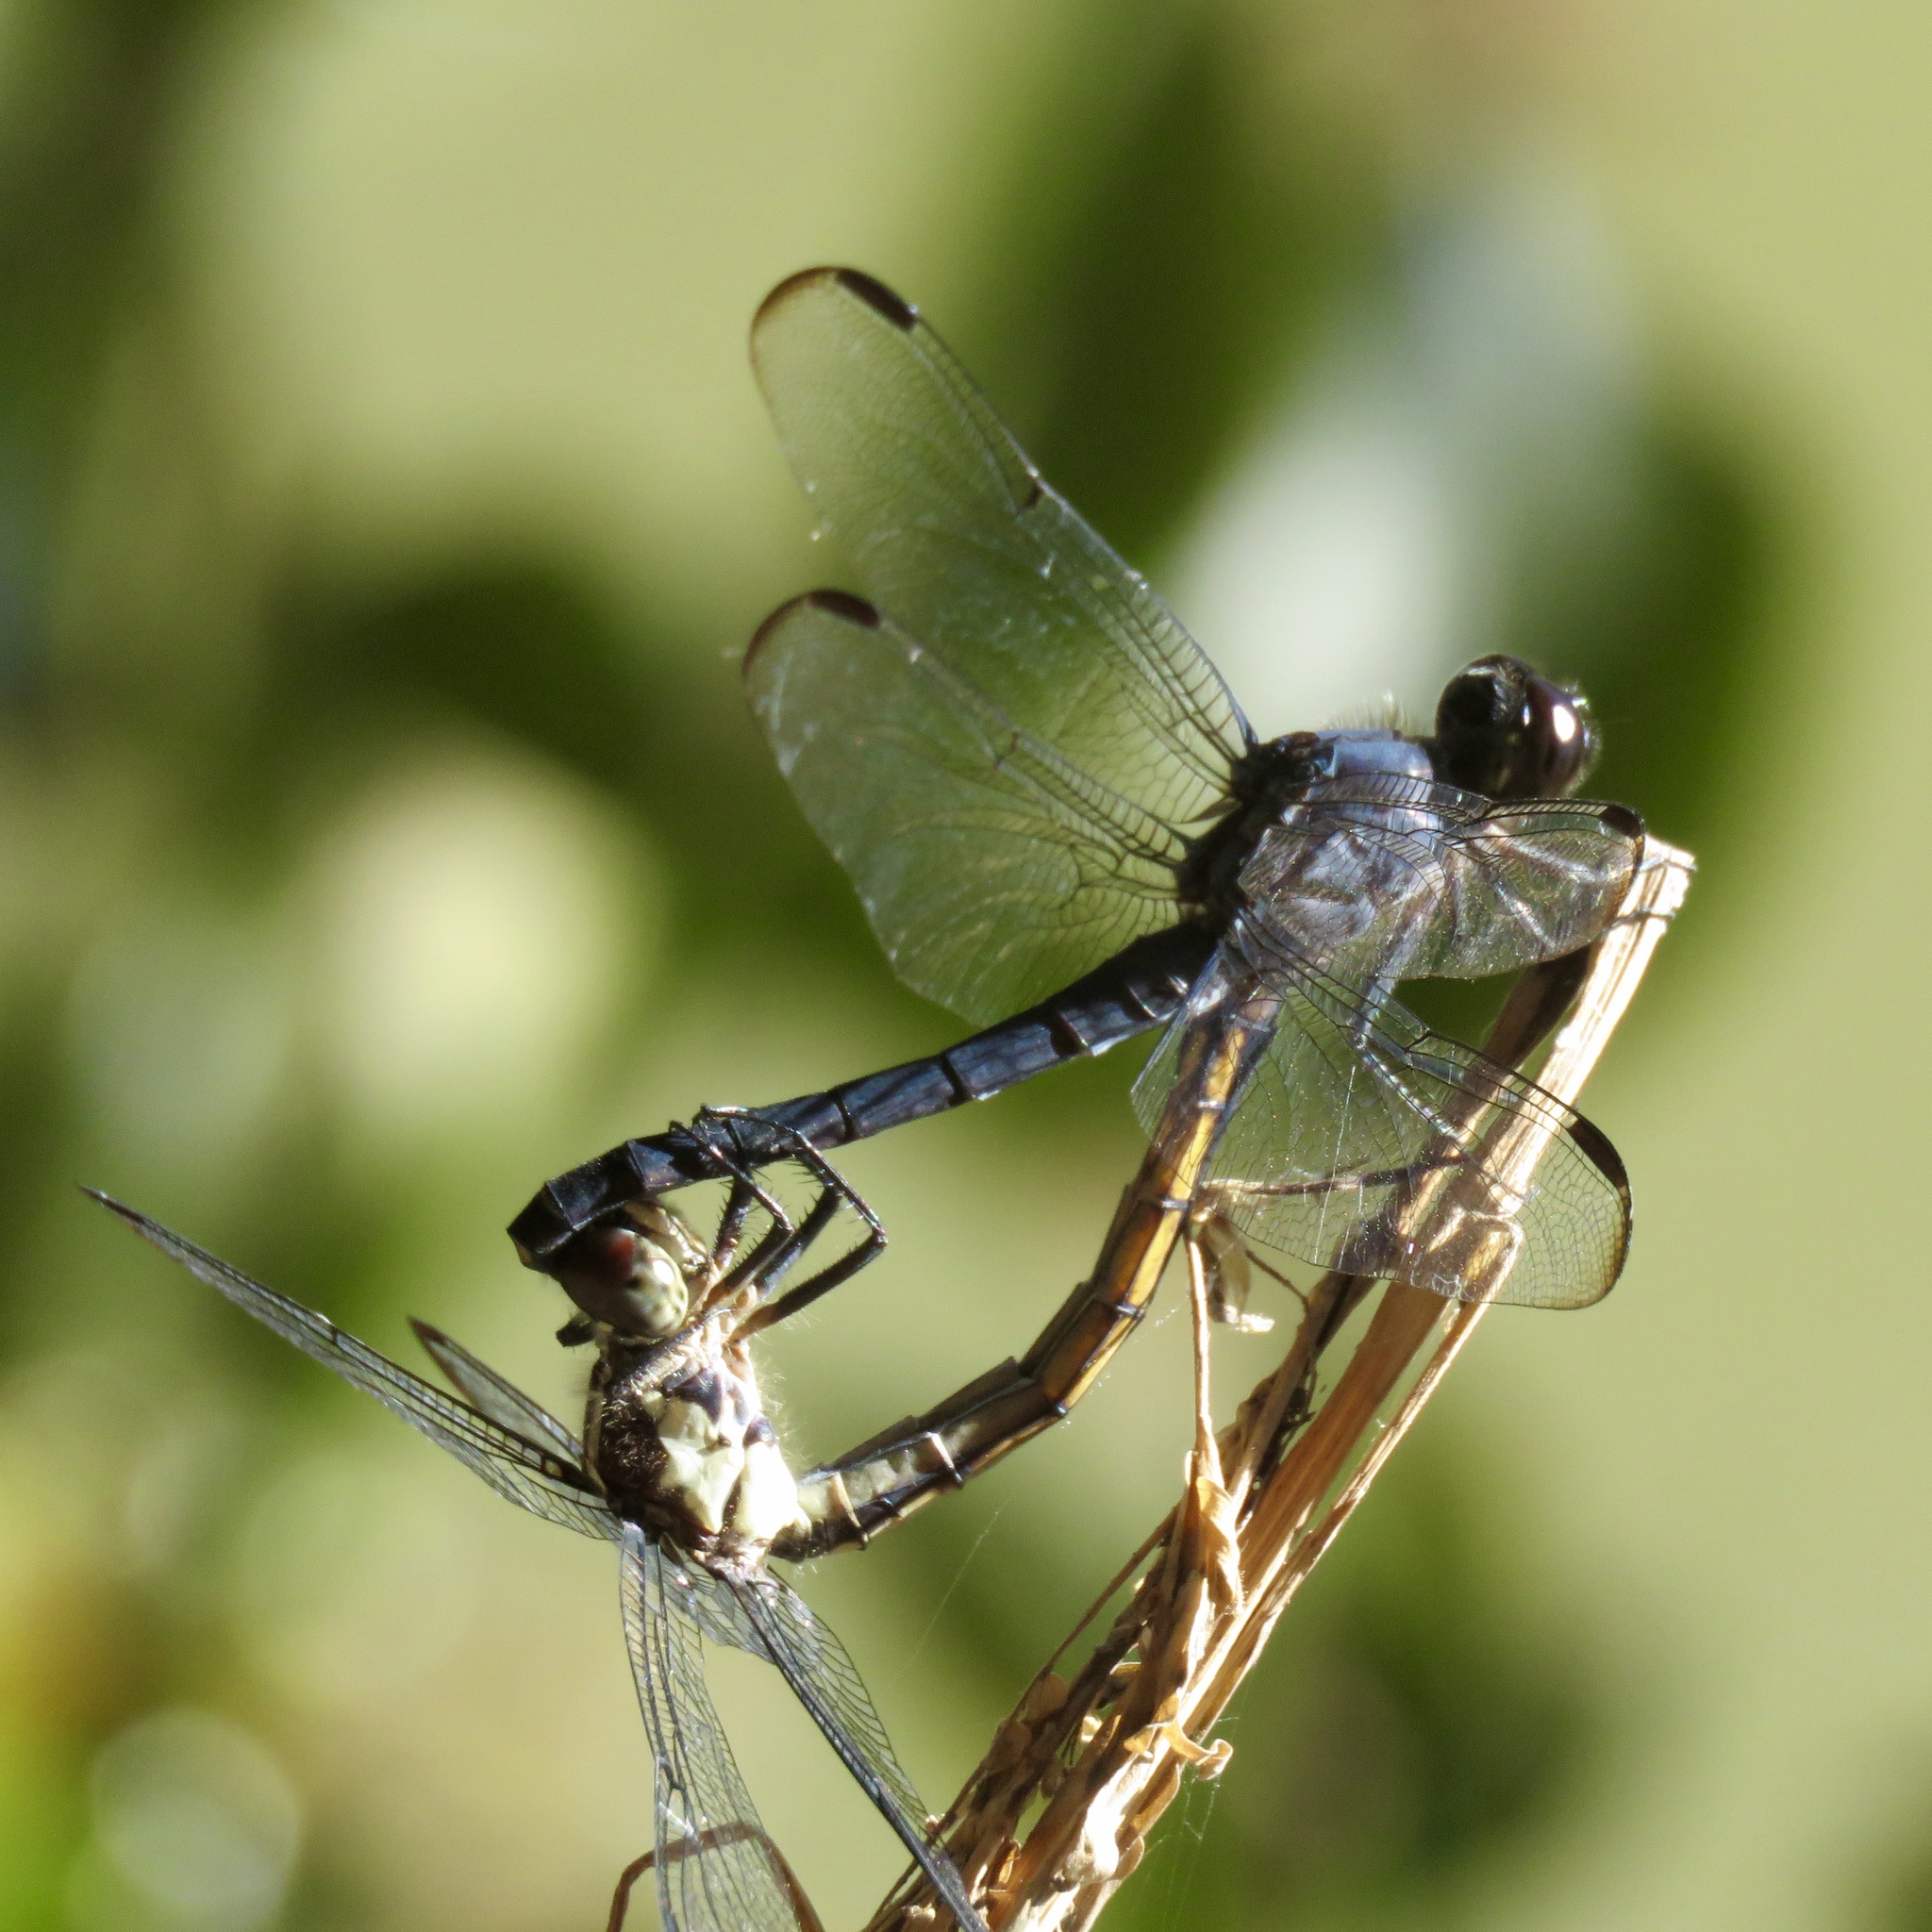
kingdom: Animalia
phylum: Arthropoda
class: Insecta
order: Odonata
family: Libellulidae
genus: Libellula
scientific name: Libellula incesta
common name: Slaty skimmer
